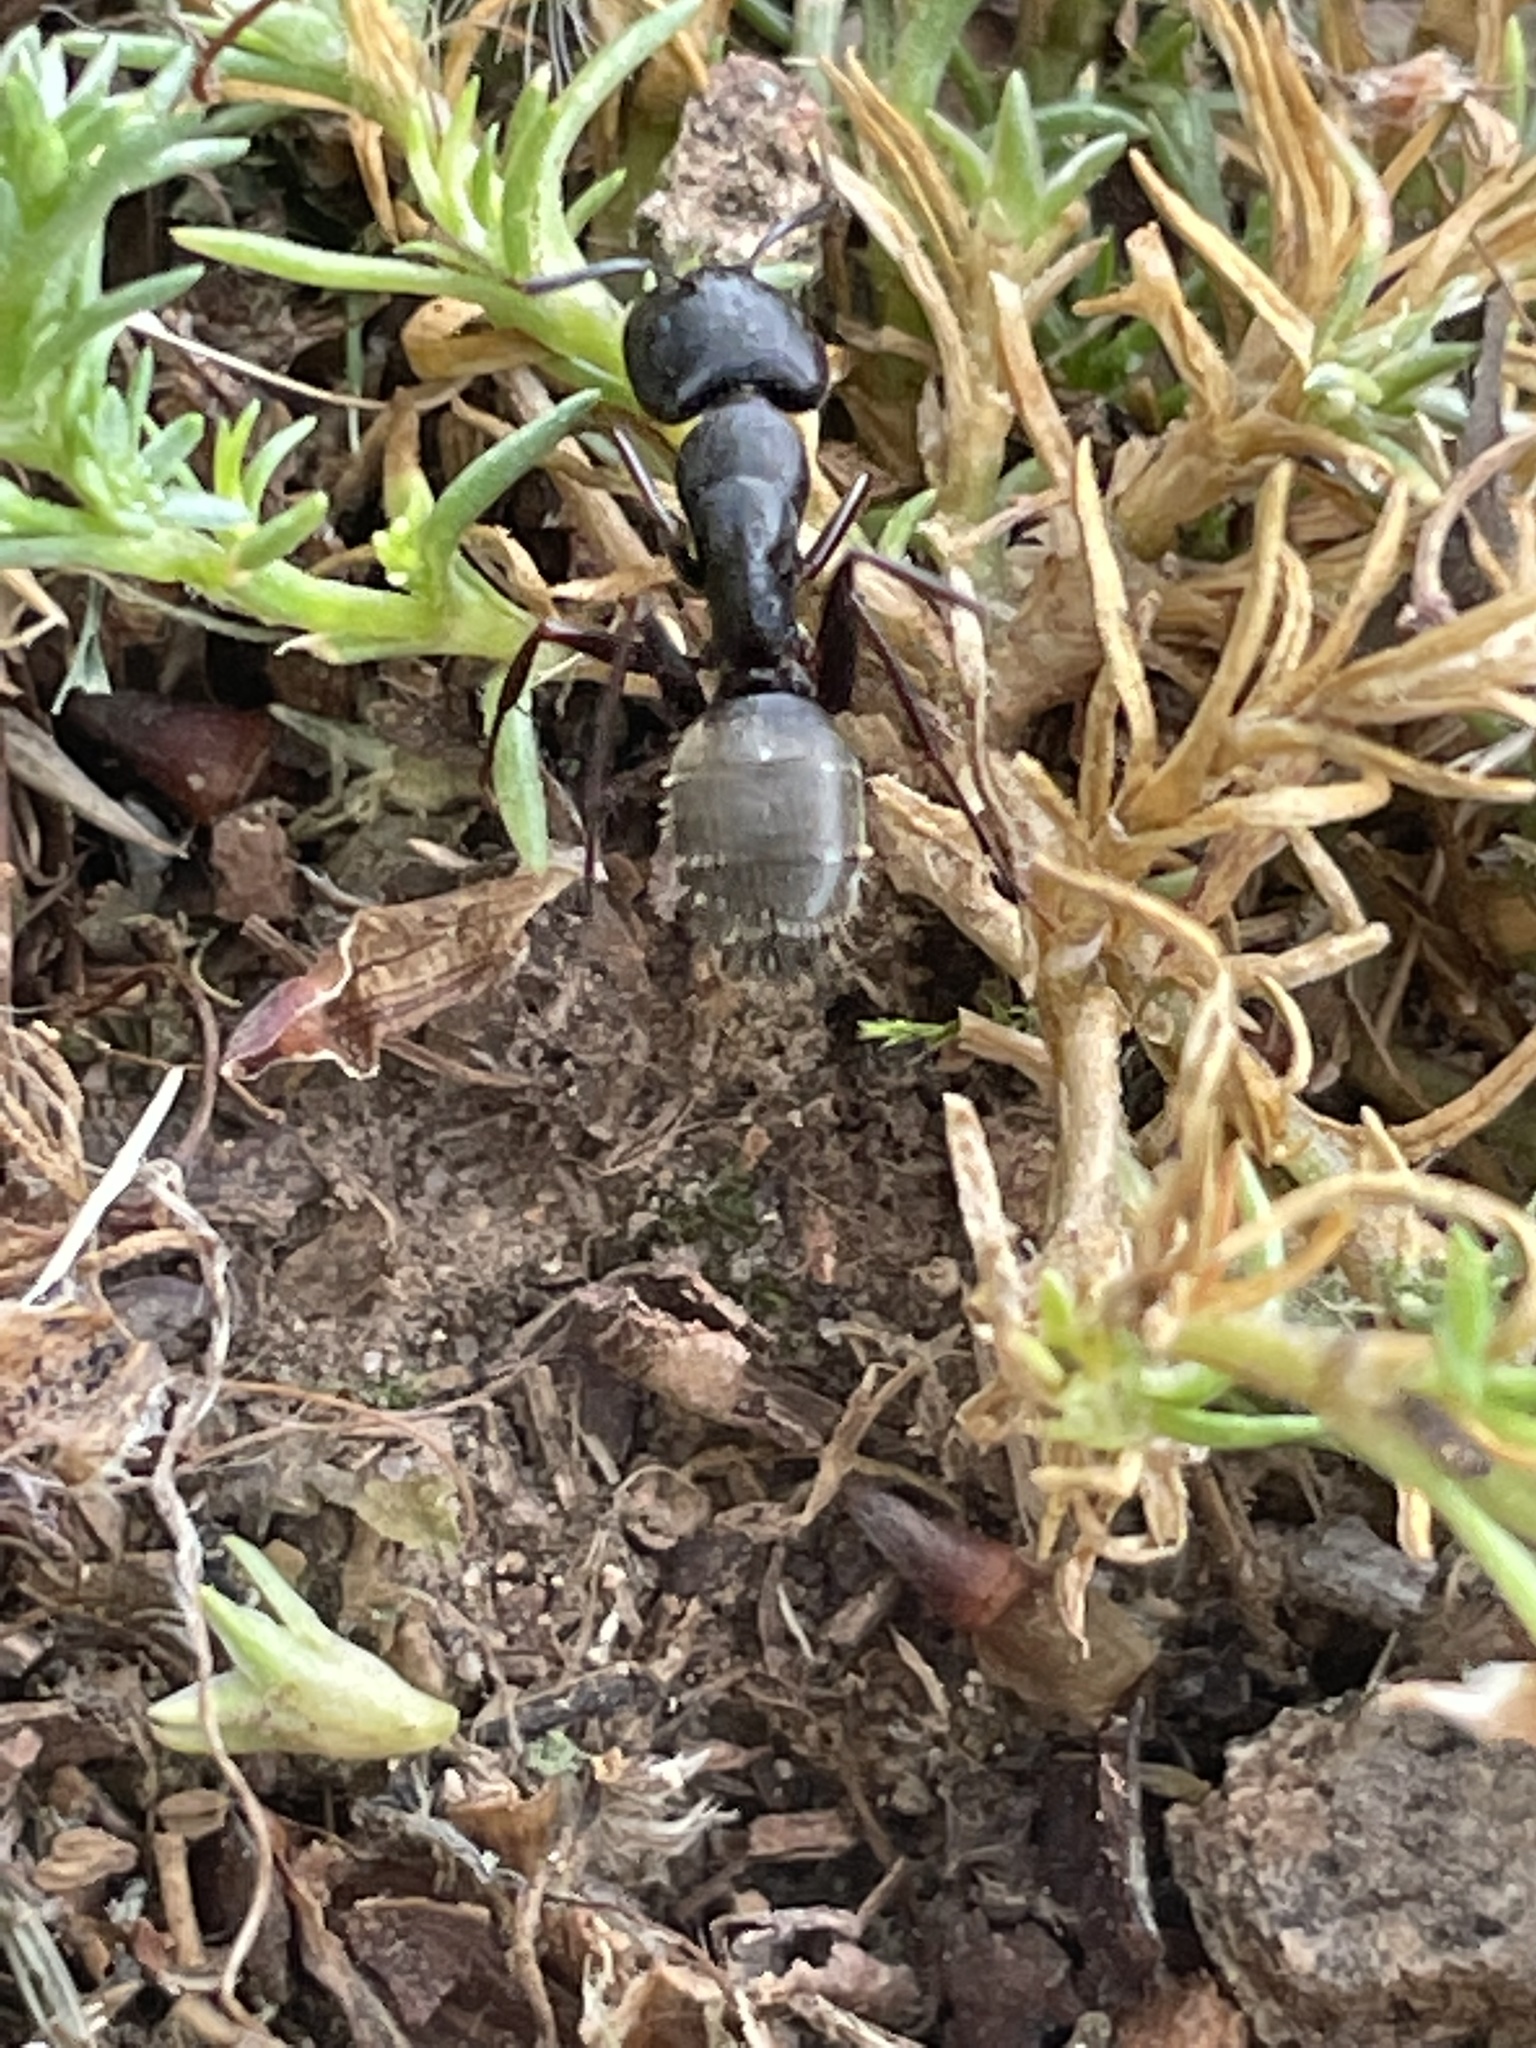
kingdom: Animalia
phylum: Arthropoda
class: Insecta
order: Hymenoptera
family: Formicidae
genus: Camponotus
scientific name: Camponotus pennsylvanicus
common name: Black carpenter ant
